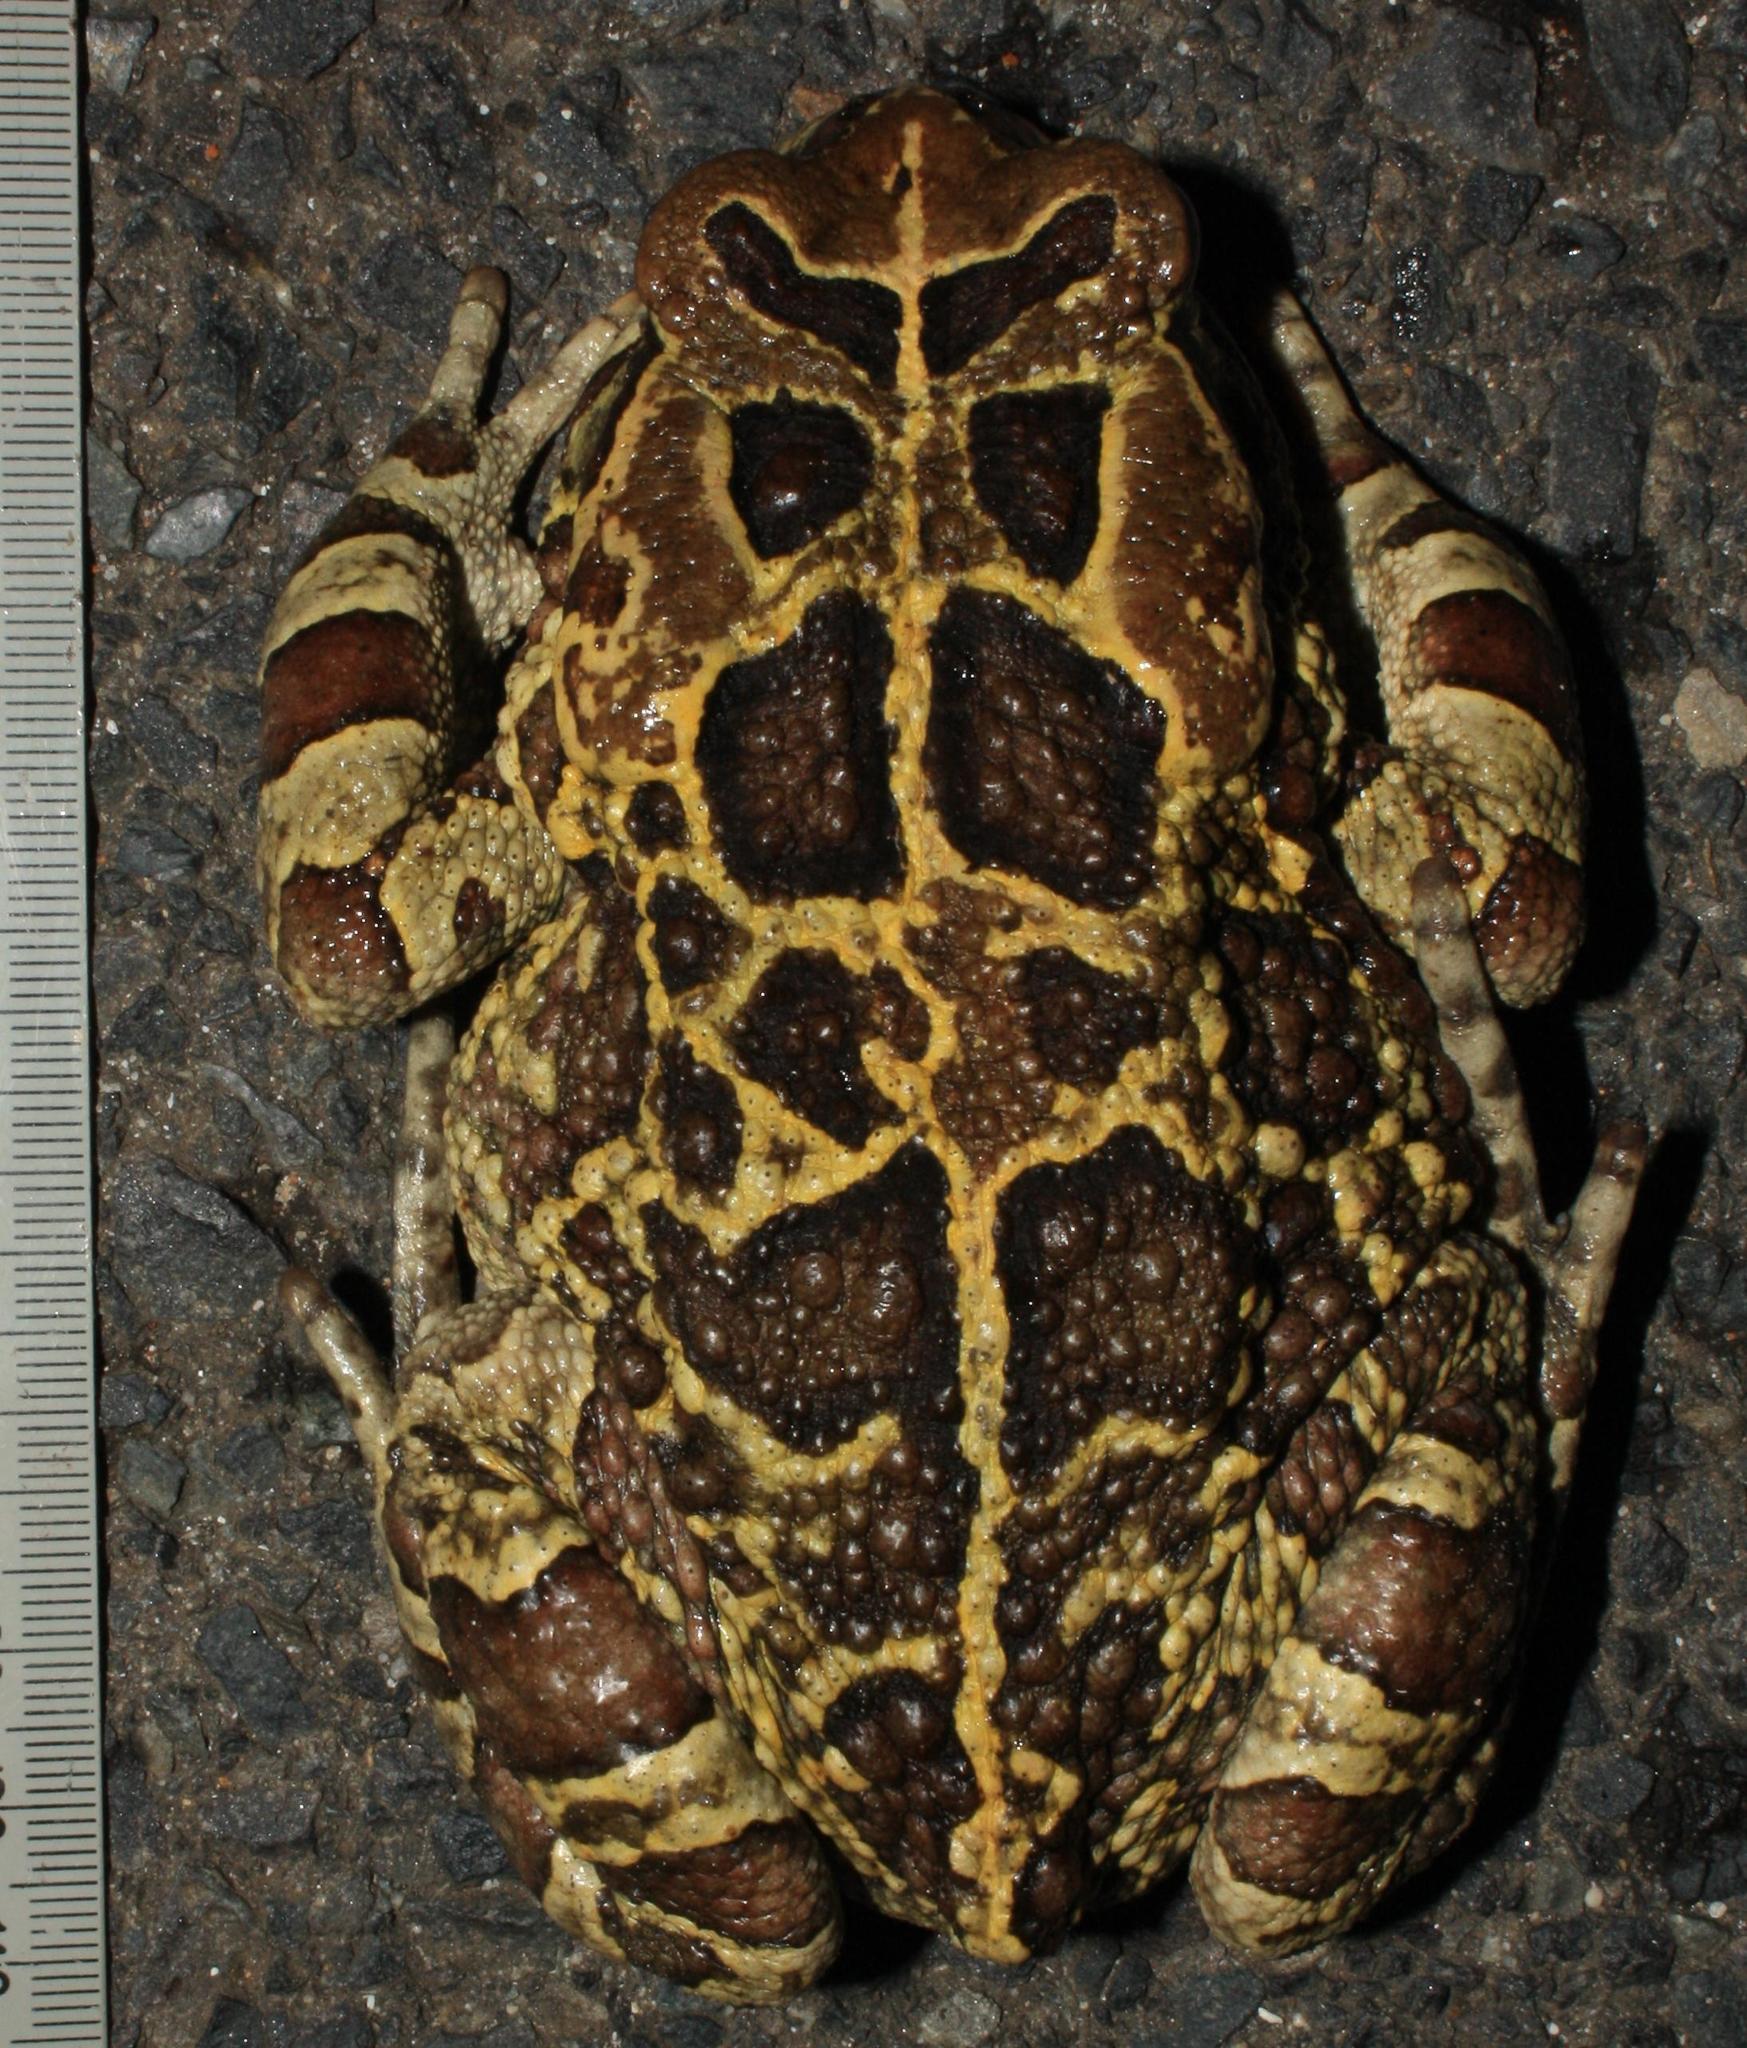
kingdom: Animalia
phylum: Chordata
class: Amphibia
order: Anura
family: Bufonidae
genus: Sclerophrys
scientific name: Sclerophrys pantherina
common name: Panther toad
